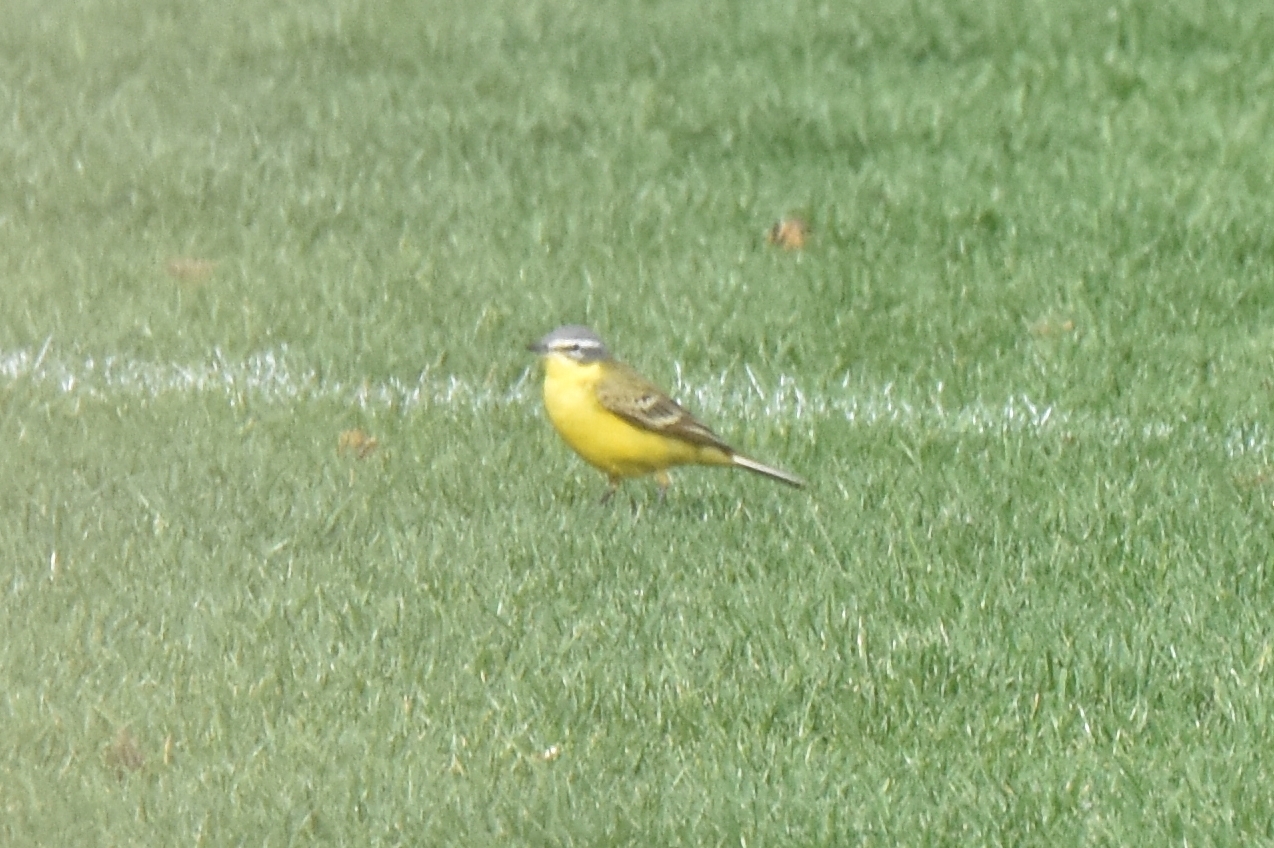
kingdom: Animalia
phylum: Chordata
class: Aves
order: Passeriformes
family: Motacillidae
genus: Motacilla
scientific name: Motacilla flava
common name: Western yellow wagtail
